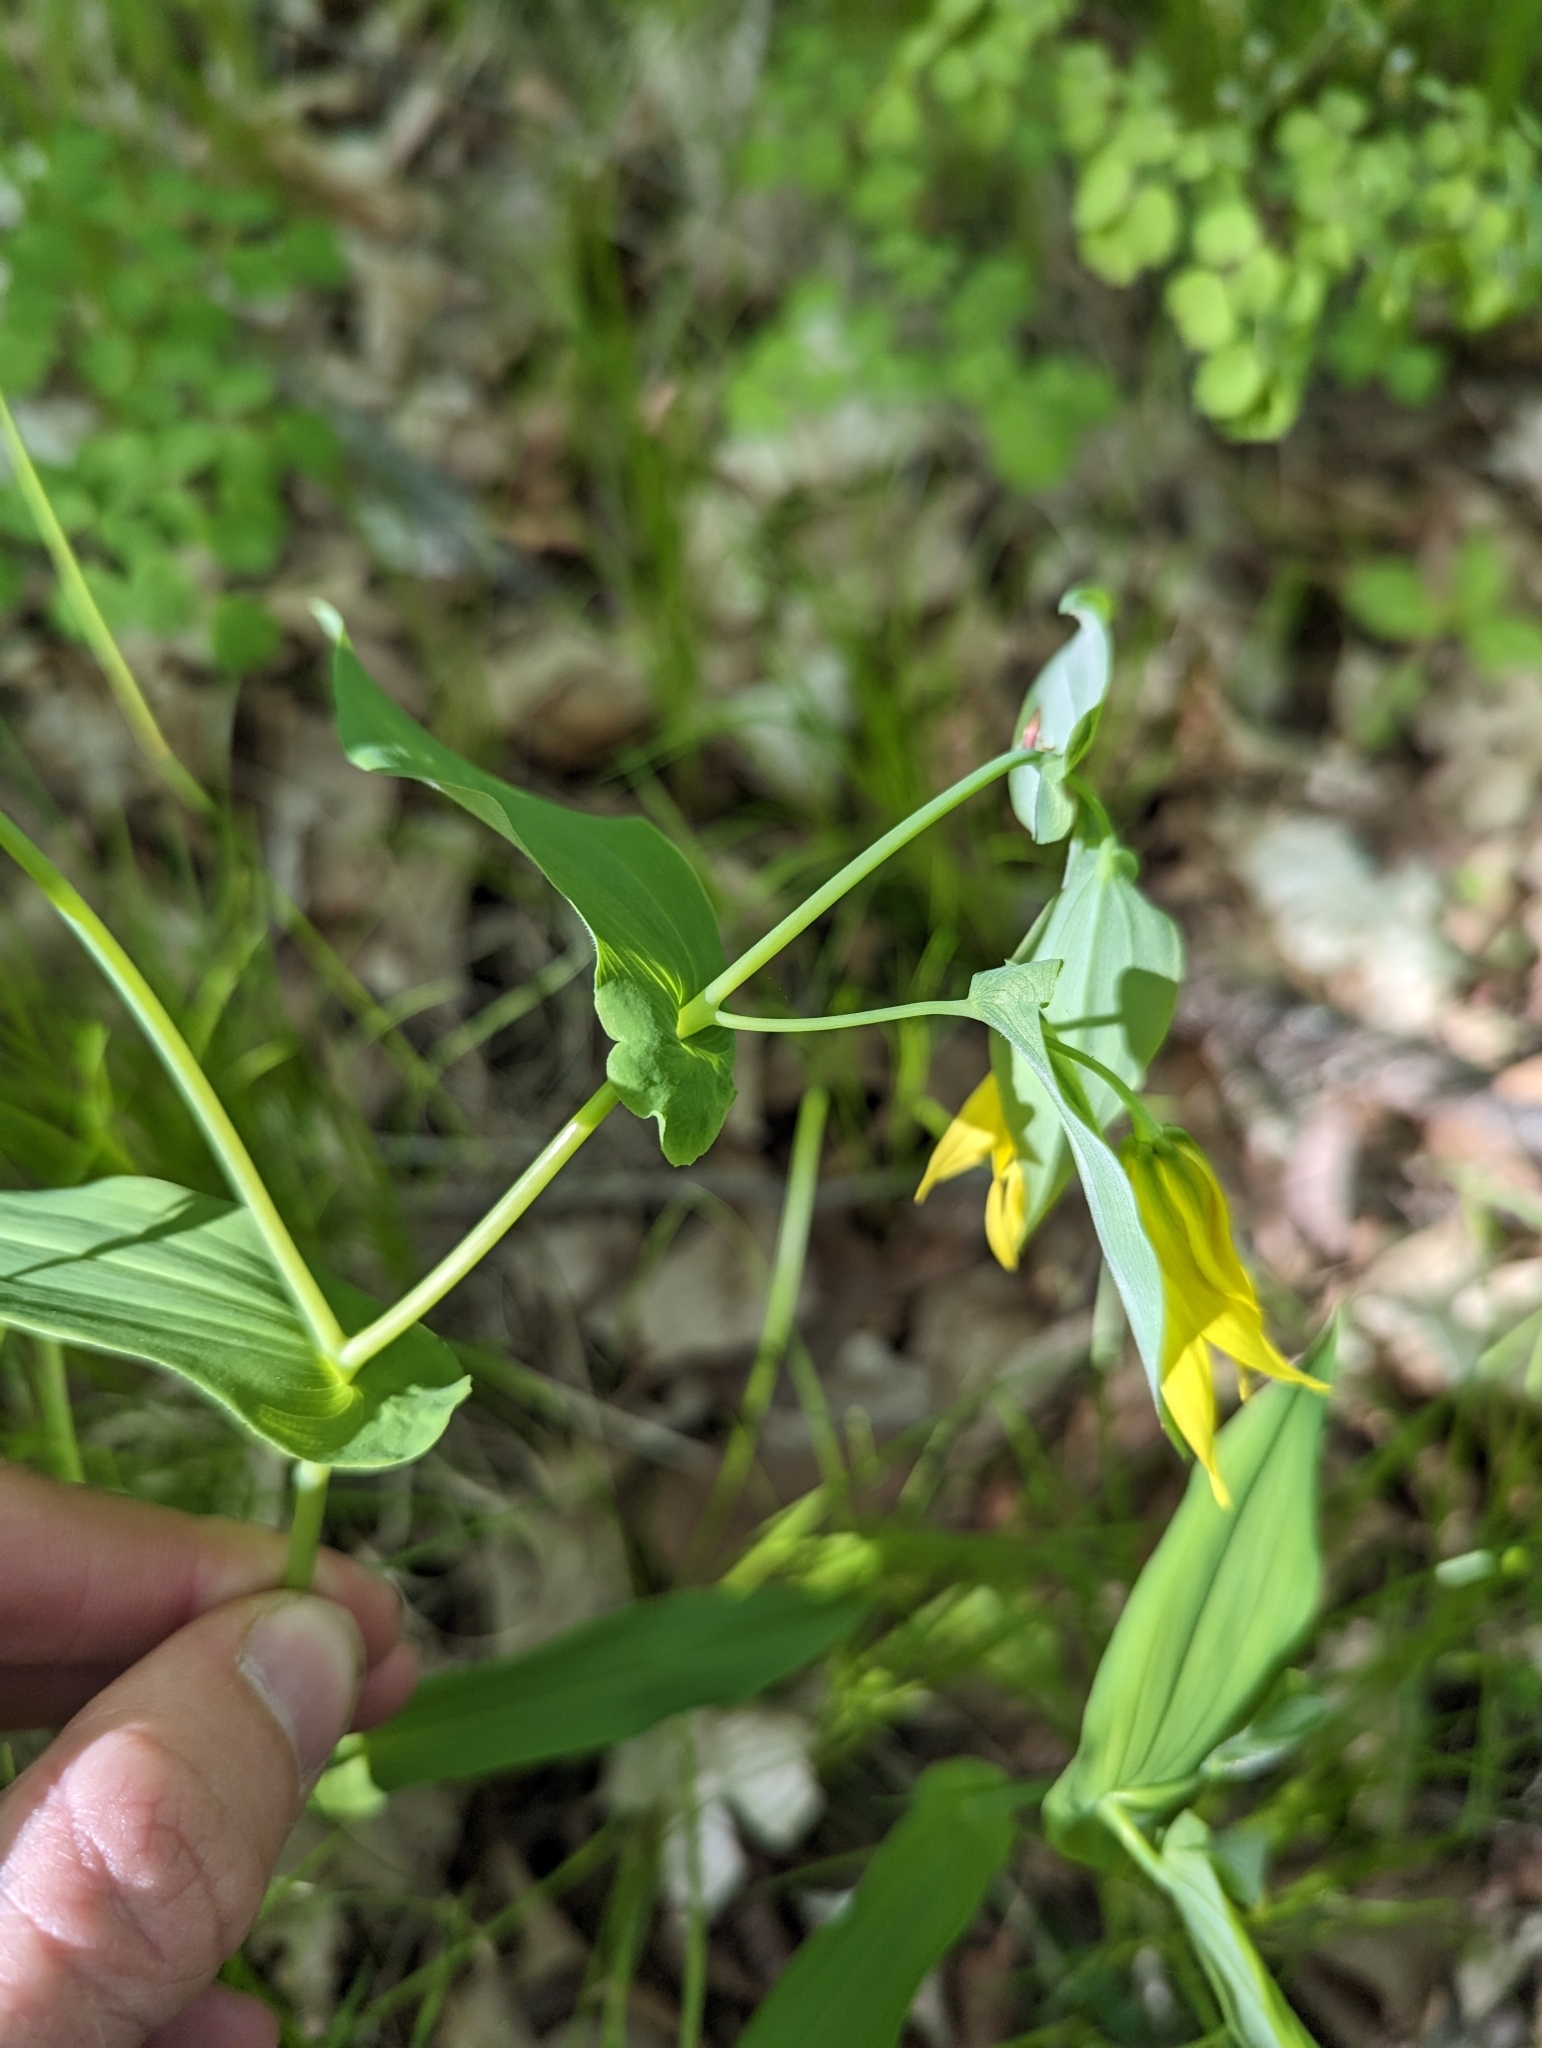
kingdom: Plantae
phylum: Tracheophyta
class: Liliopsida
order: Liliales
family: Colchicaceae
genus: Uvularia
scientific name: Uvularia grandiflora
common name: Bellwort
